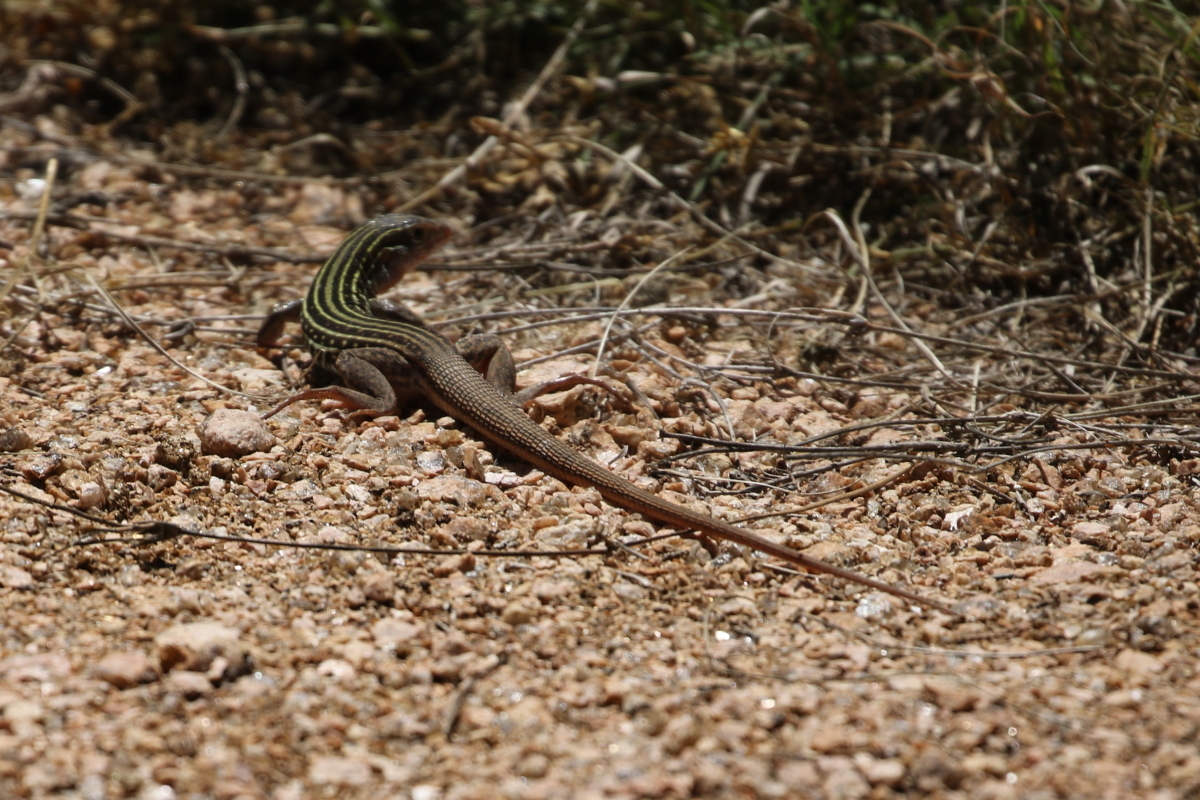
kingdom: Animalia
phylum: Chordata
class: Squamata
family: Teiidae
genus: Aspidoscelis
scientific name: Aspidoscelis gularis
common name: Eastern spotted whiptail
